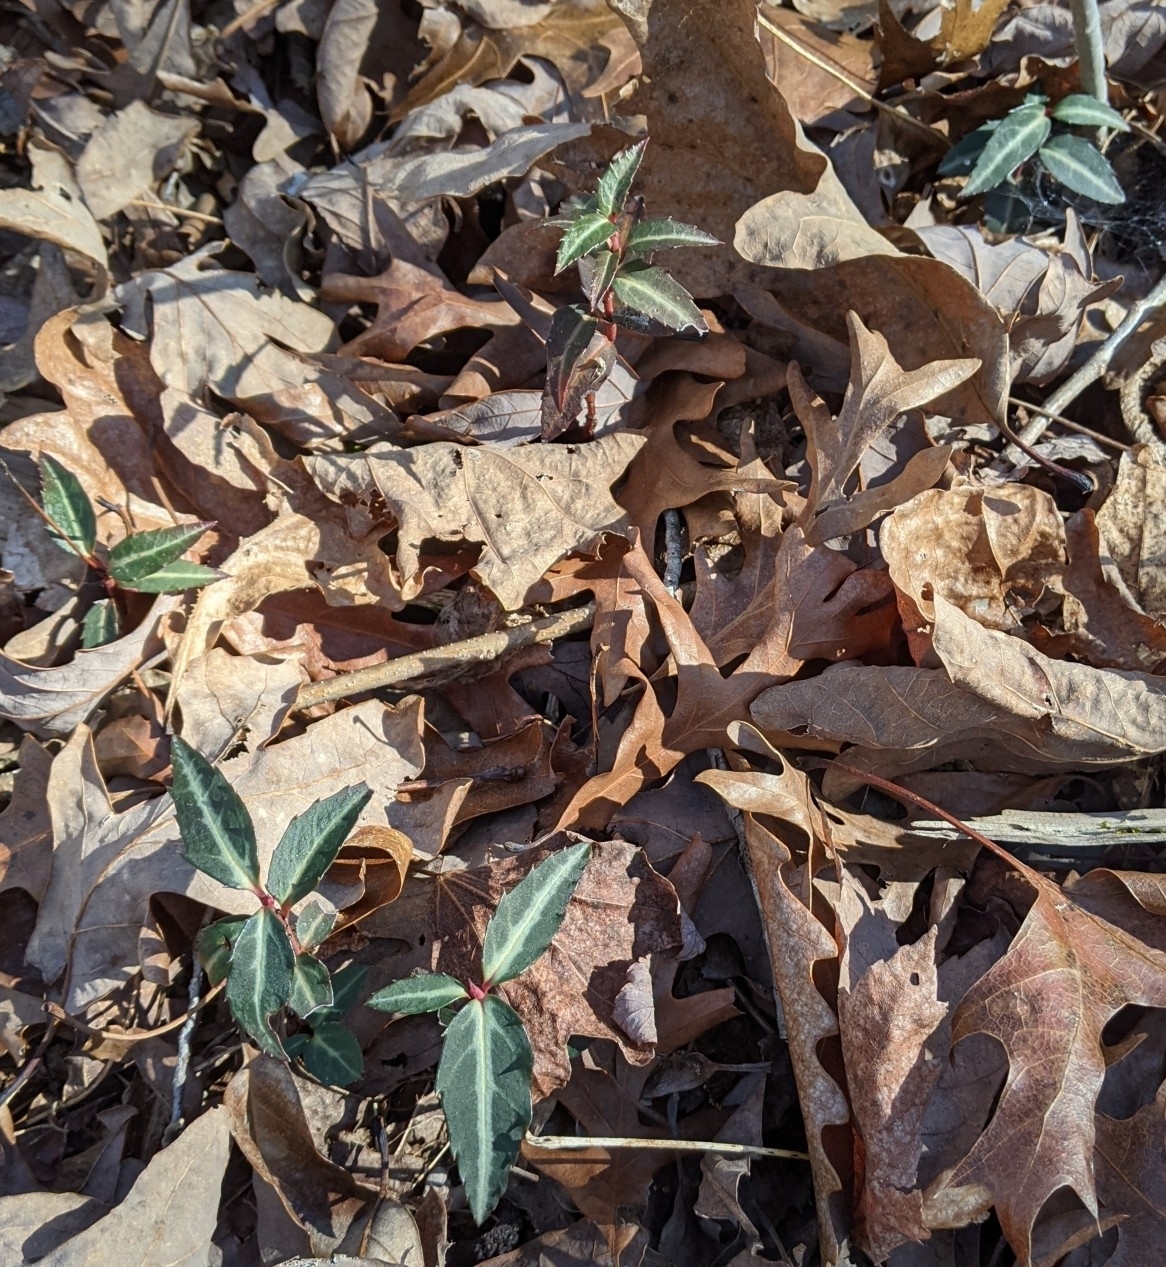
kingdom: Plantae
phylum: Tracheophyta
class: Magnoliopsida
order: Ericales
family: Ericaceae
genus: Chimaphila
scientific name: Chimaphila maculata
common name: Spotted pipsissewa
